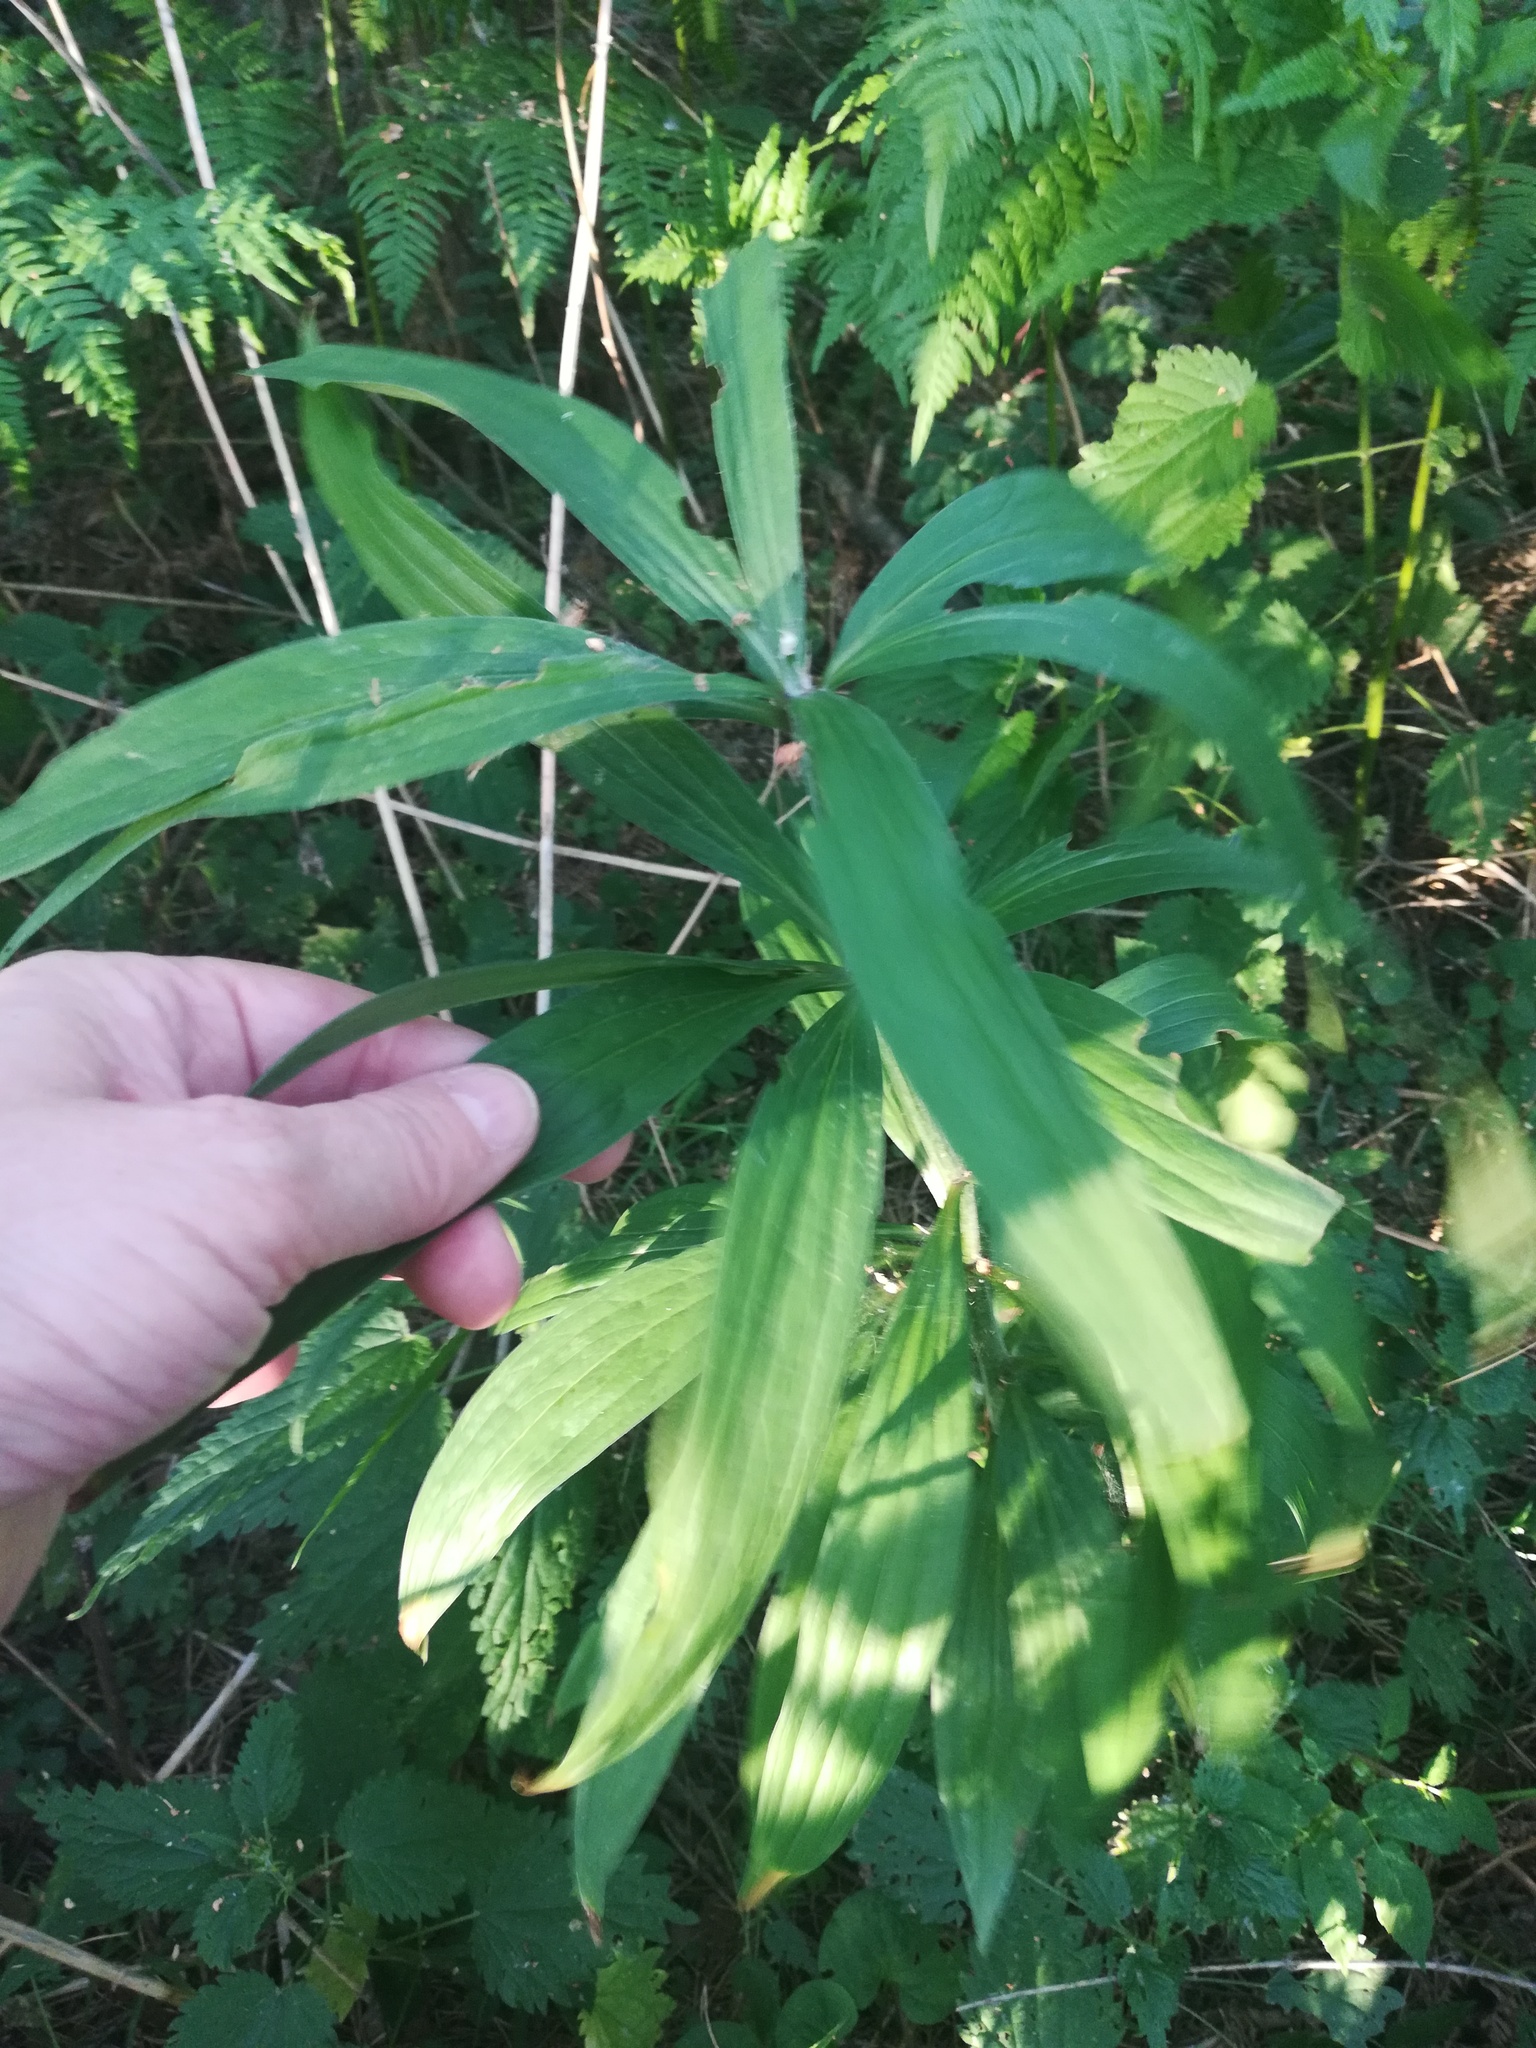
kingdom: Plantae
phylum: Tracheophyta
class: Liliopsida
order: Liliales
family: Liliaceae
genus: Lilium
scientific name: Lilium martagon
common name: Martagon lily
